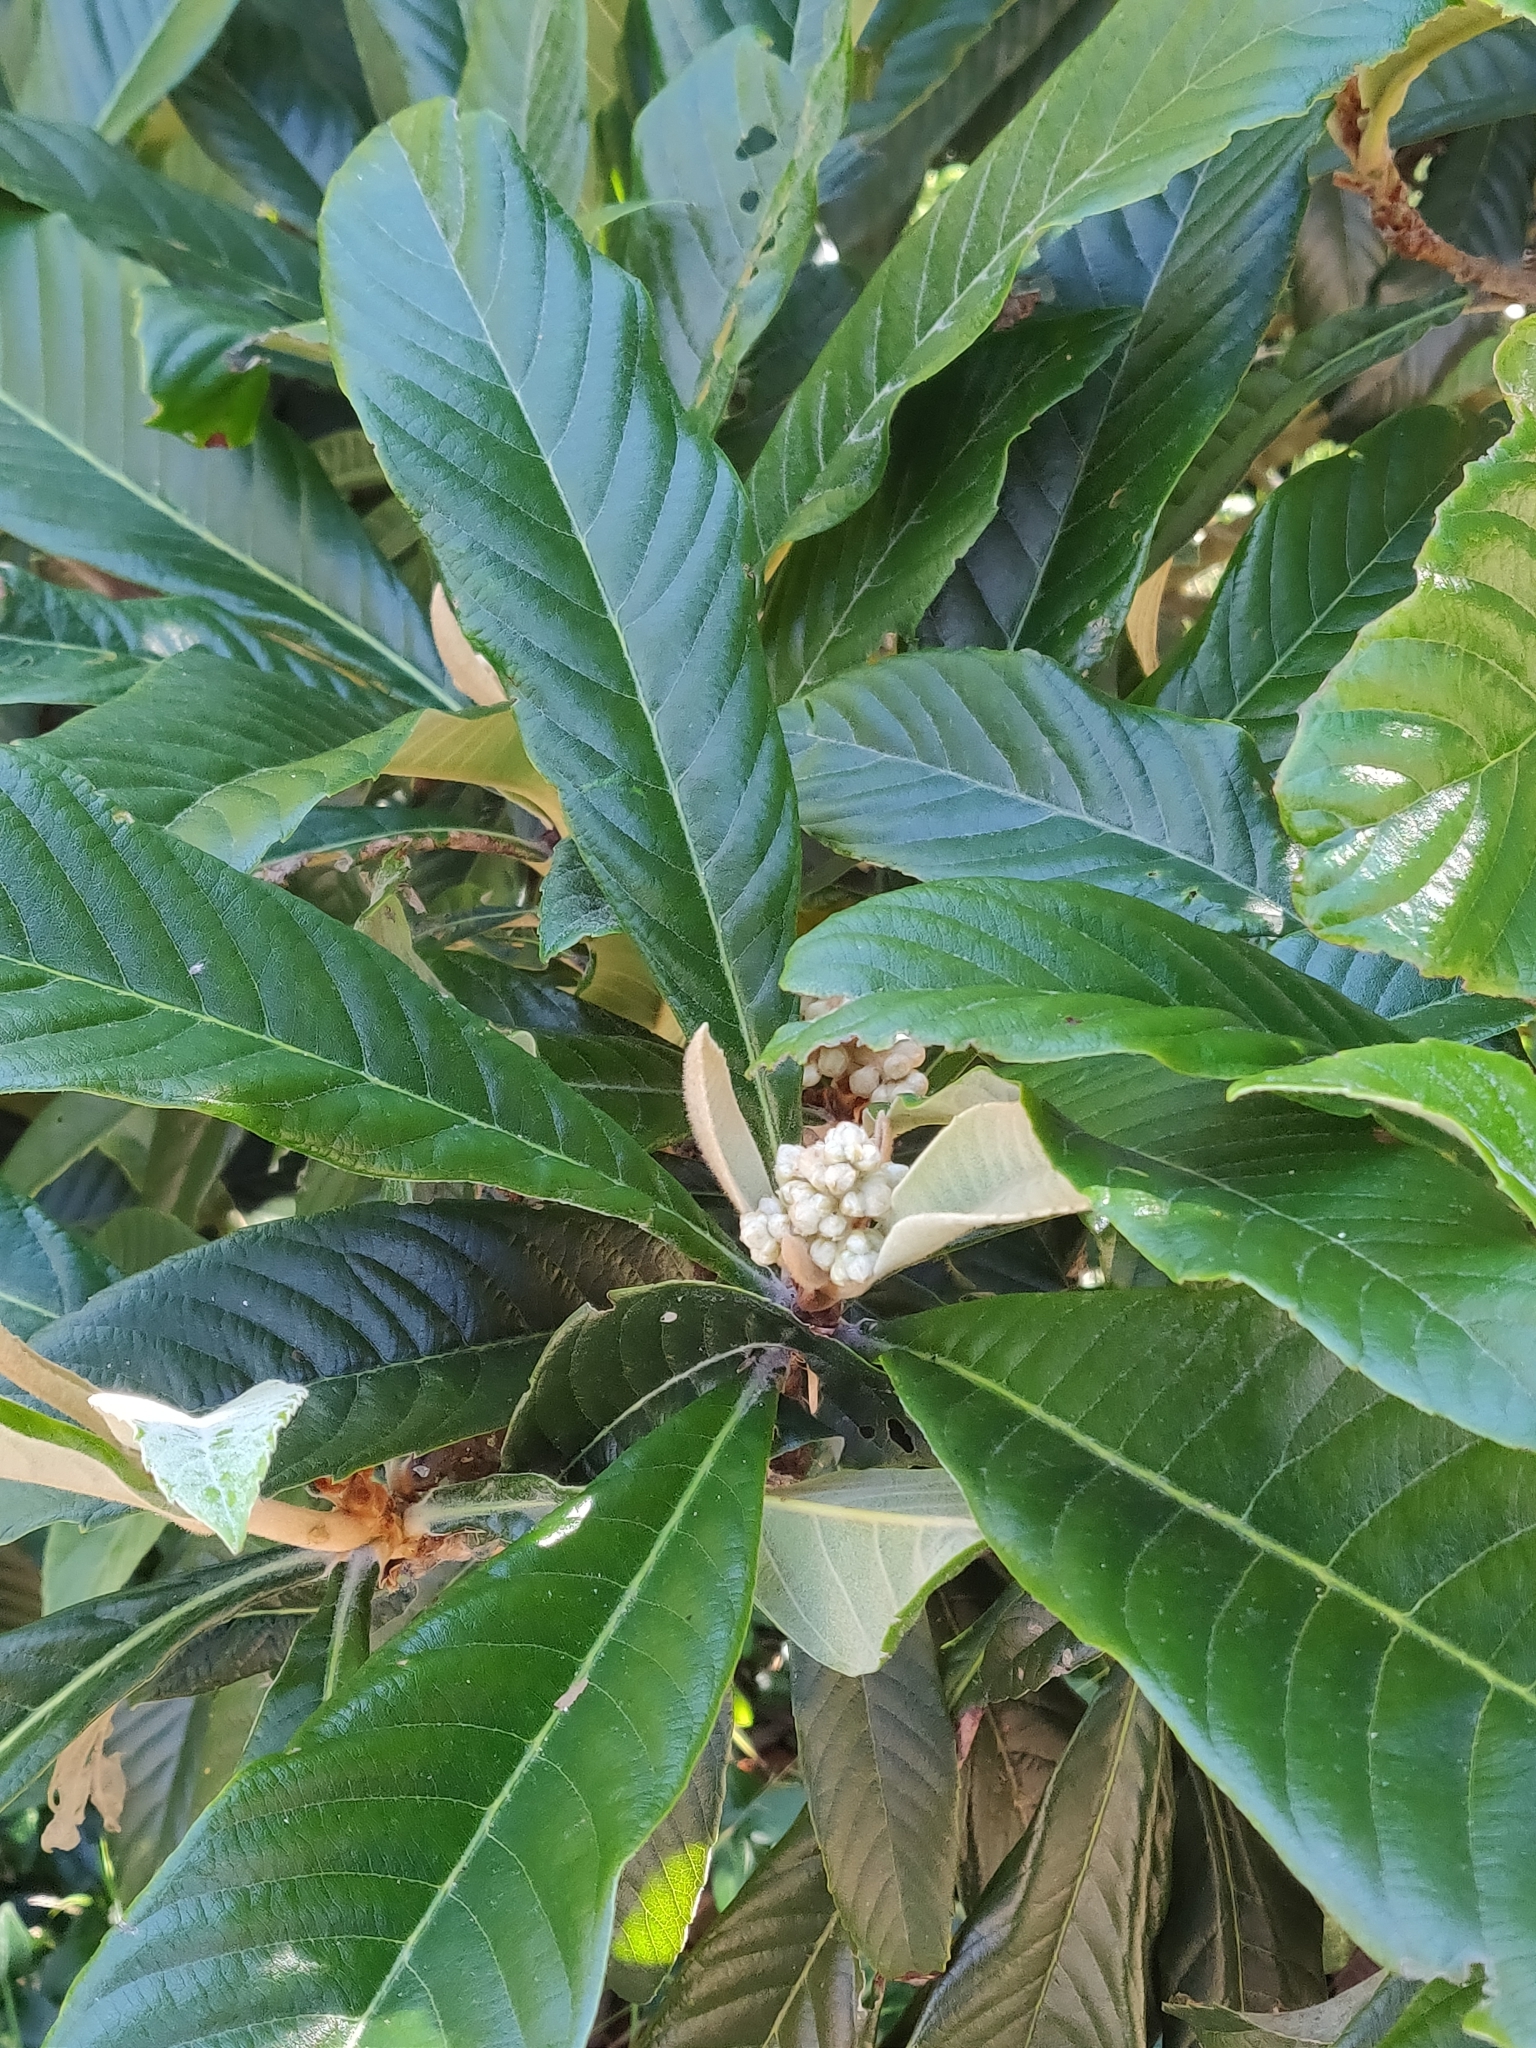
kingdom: Plantae
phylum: Tracheophyta
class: Magnoliopsida
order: Rosales
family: Rosaceae
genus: Rhaphiolepis
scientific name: Rhaphiolepis bibas
